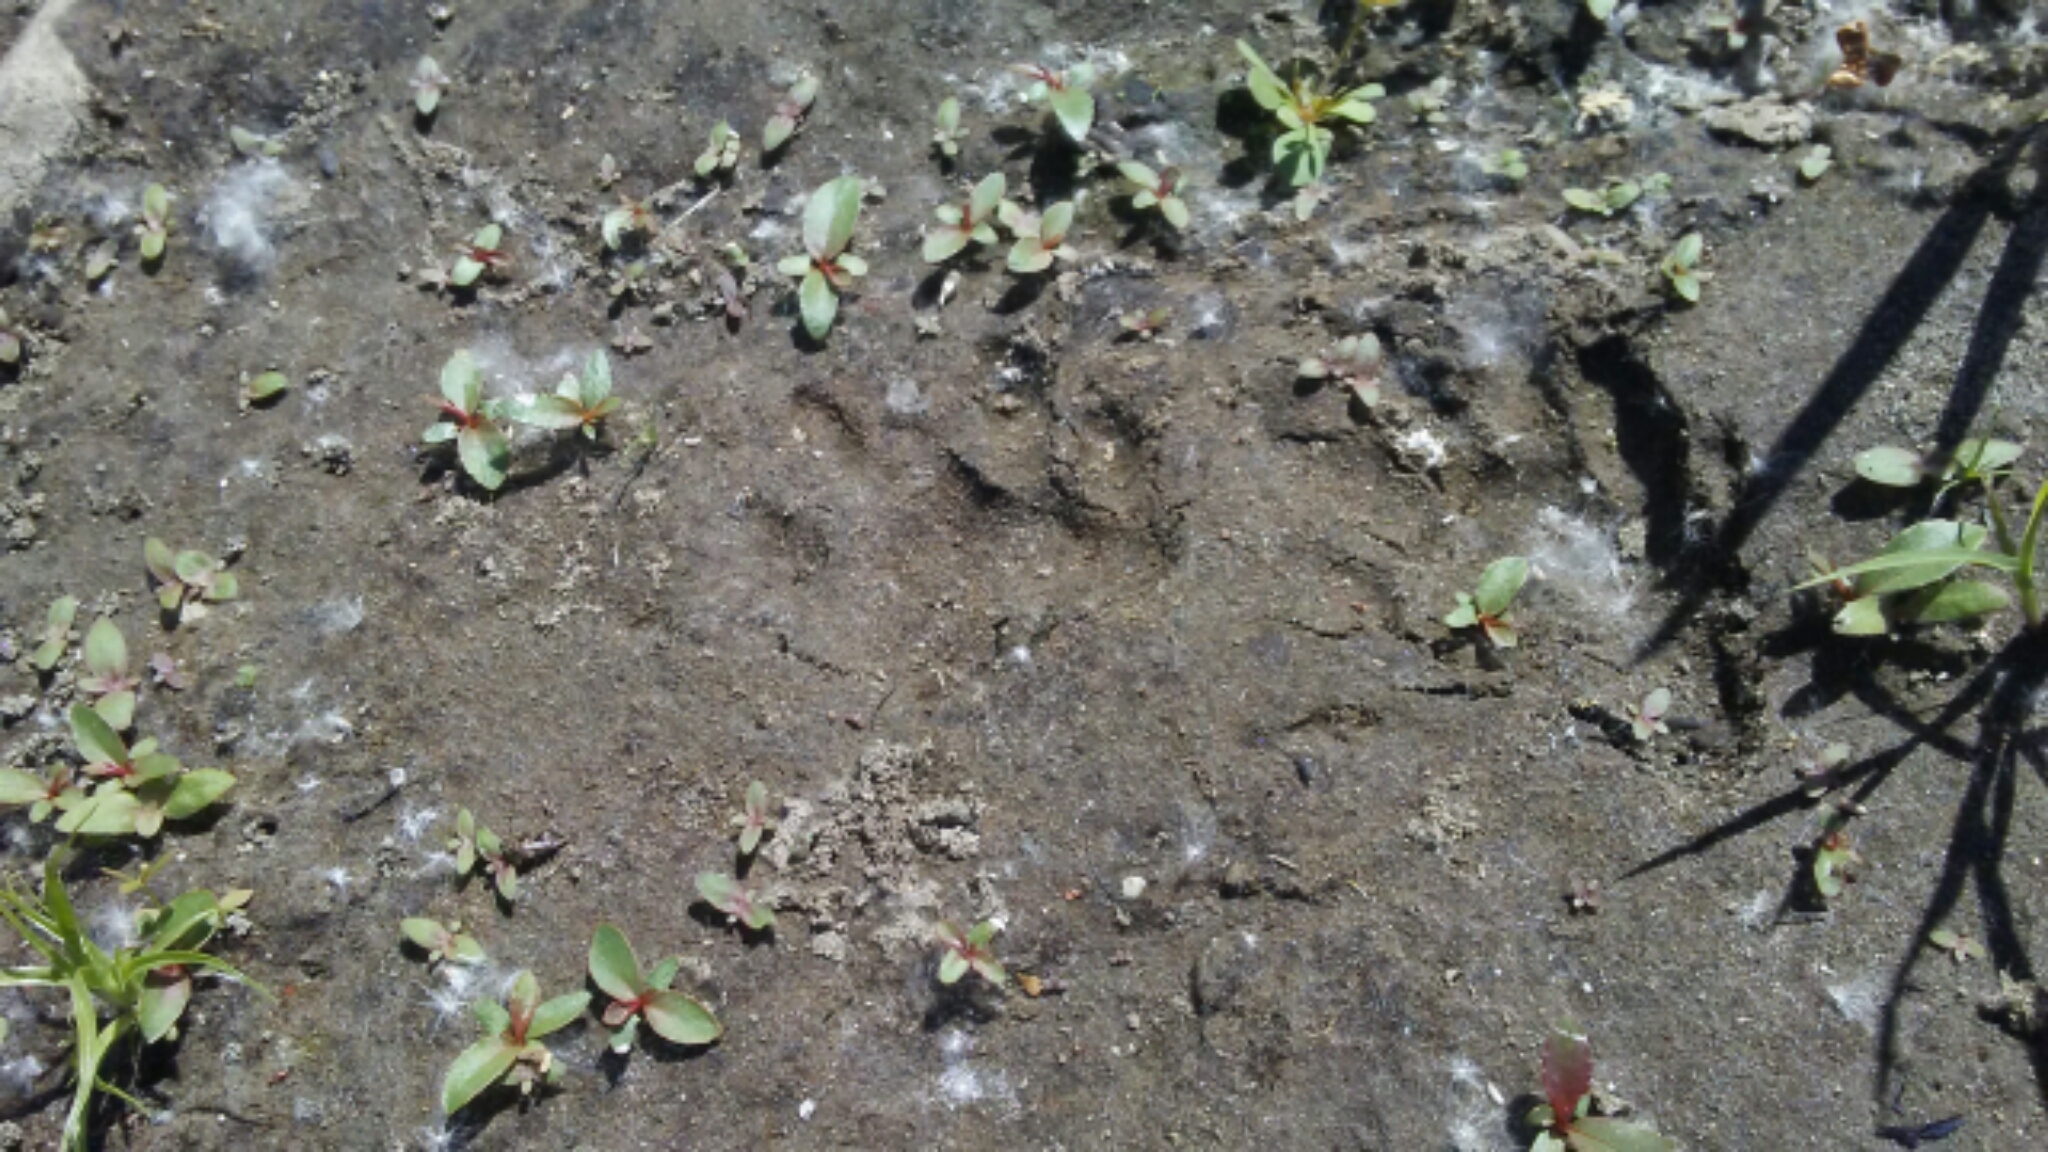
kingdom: Animalia
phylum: Chordata
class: Mammalia
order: Carnivora
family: Procyonidae
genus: Procyon
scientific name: Procyon lotor
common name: Raccoon
